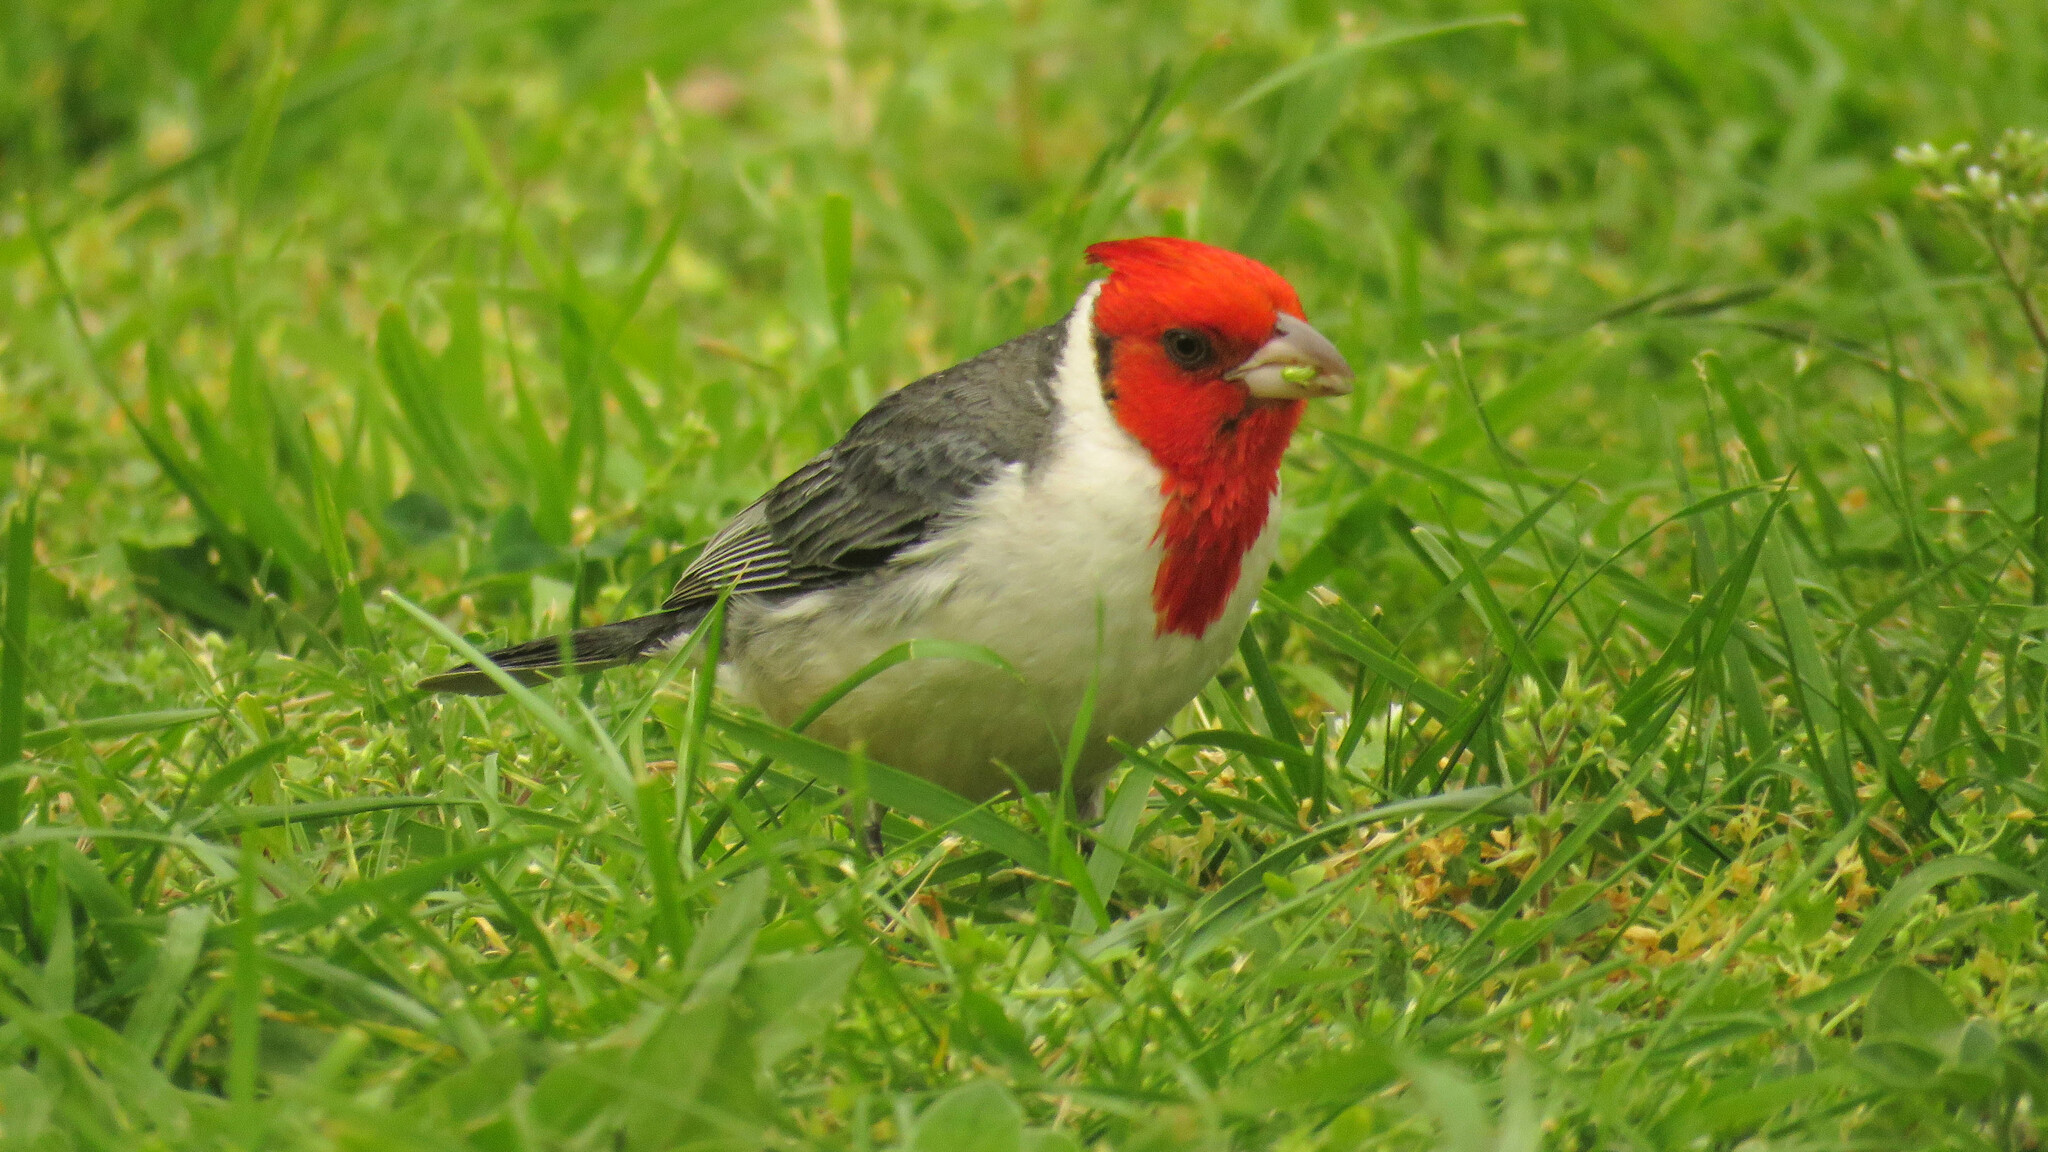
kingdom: Animalia
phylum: Chordata
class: Aves
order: Passeriformes
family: Thraupidae
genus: Paroaria
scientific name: Paroaria coronata
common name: Red-crested cardinal
